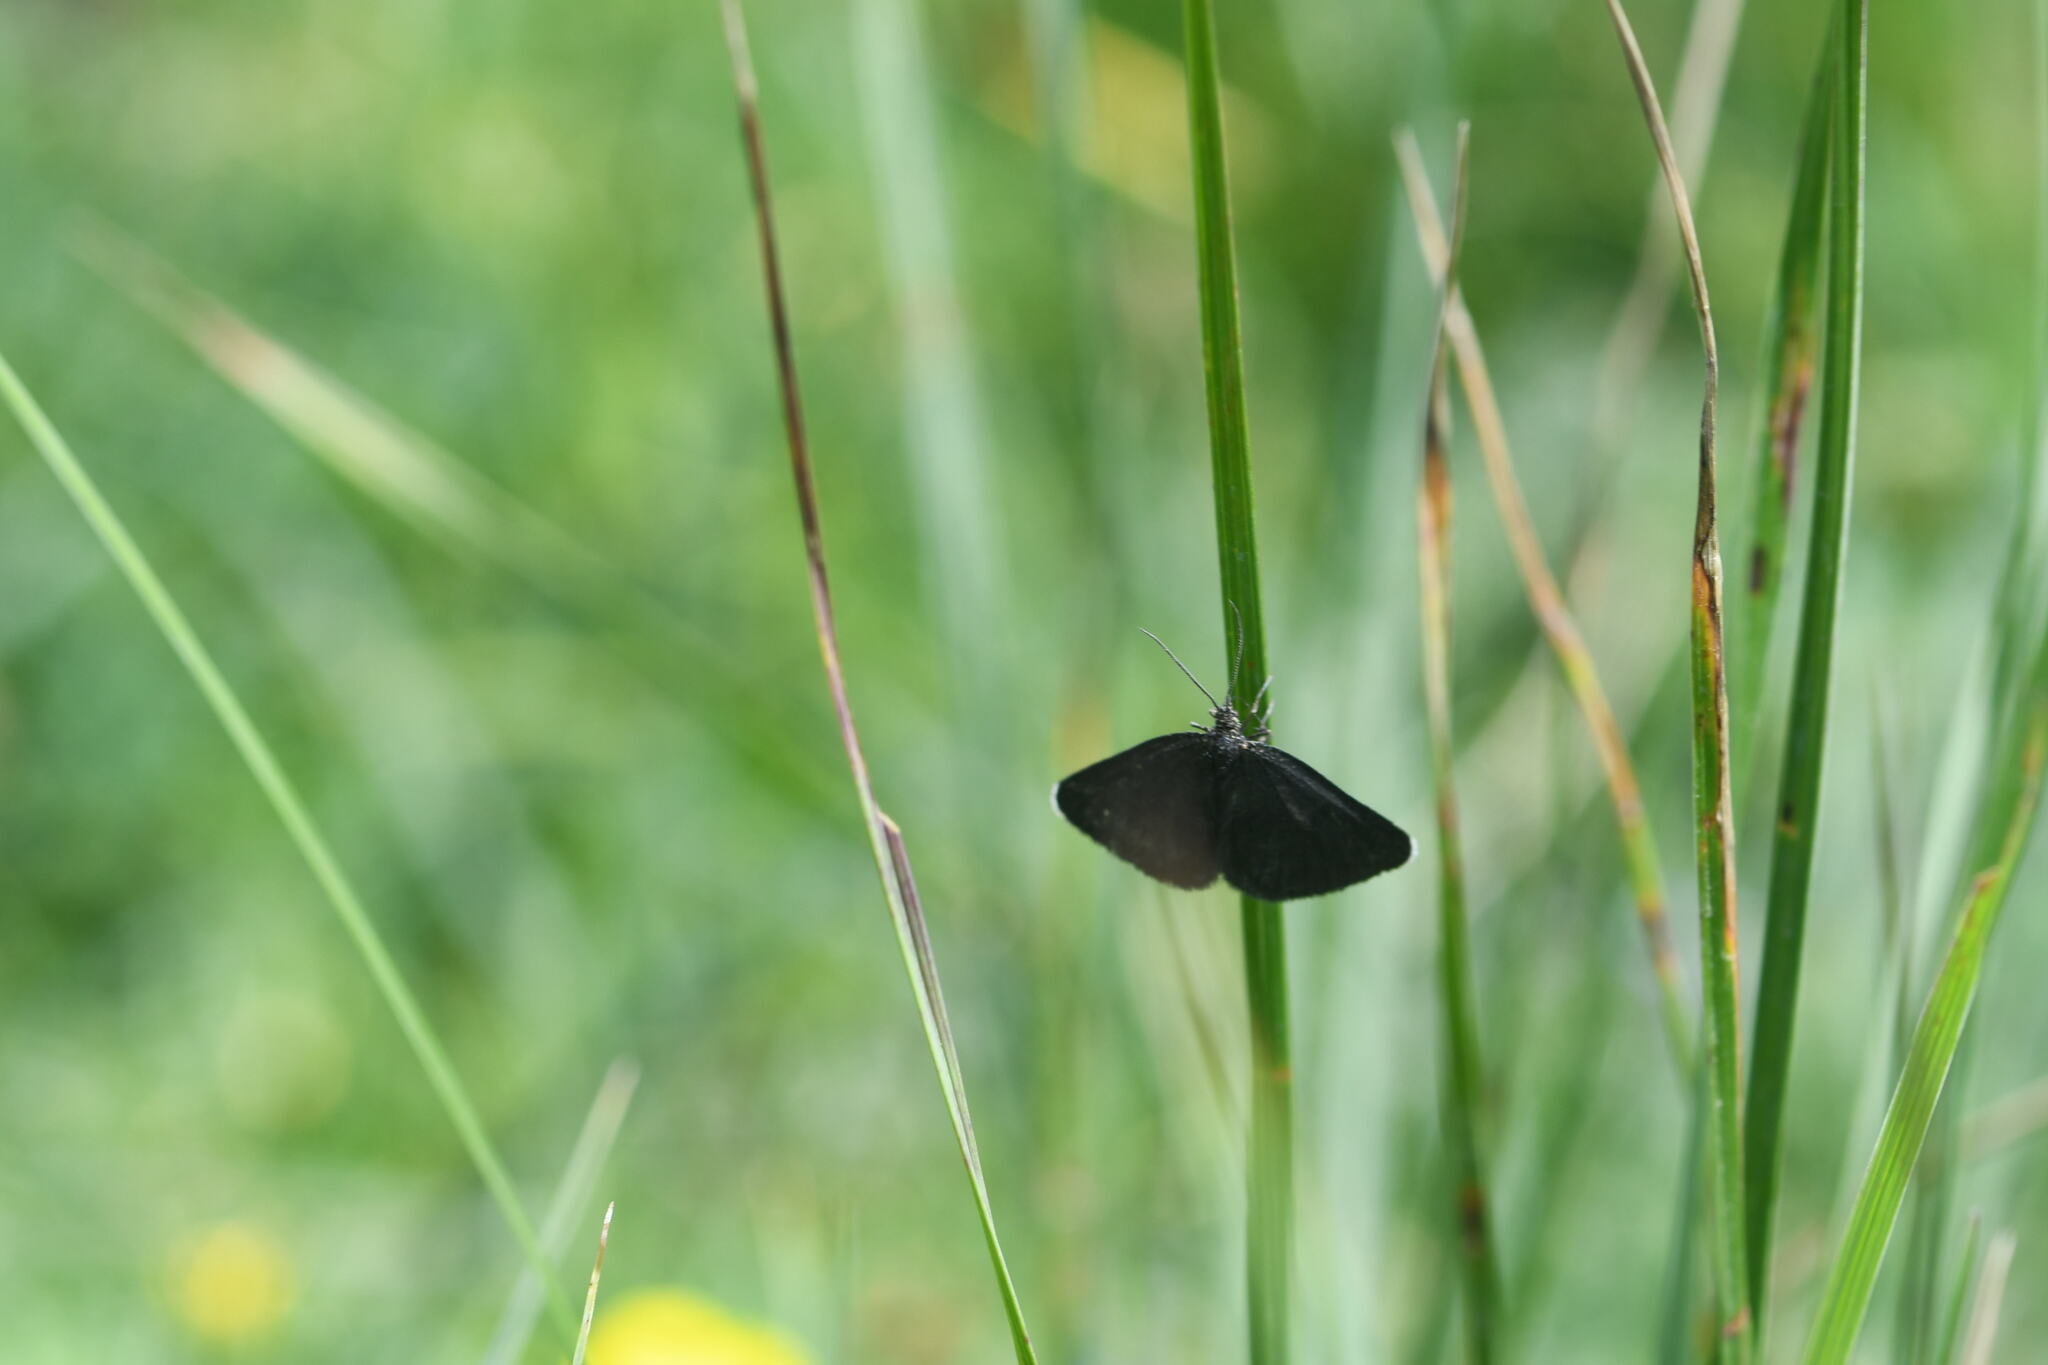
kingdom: Animalia
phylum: Arthropoda
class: Insecta
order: Lepidoptera
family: Geometridae
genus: Odezia
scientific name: Odezia atrata
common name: Chimney sweeper
